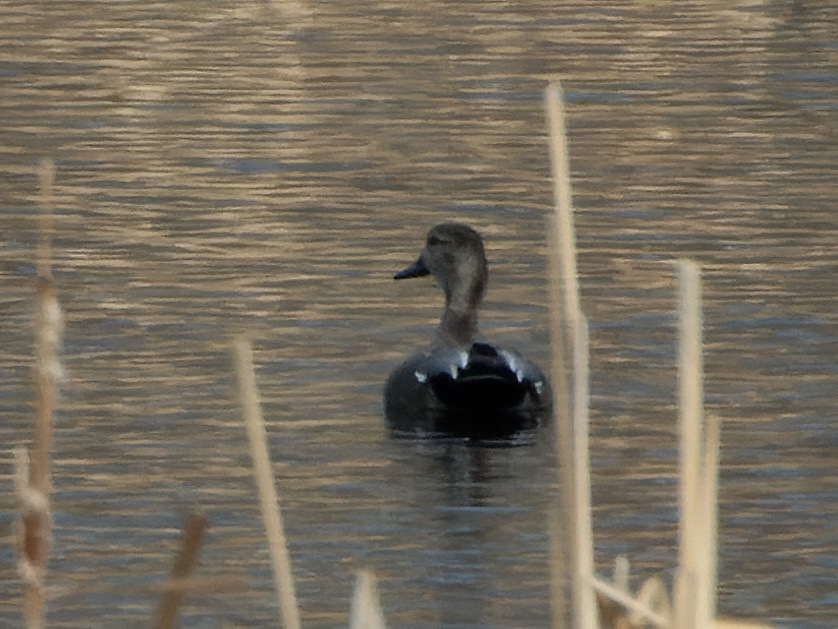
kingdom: Animalia
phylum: Chordata
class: Aves
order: Anseriformes
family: Anatidae
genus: Mareca
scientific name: Mareca strepera
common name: Gadwall
